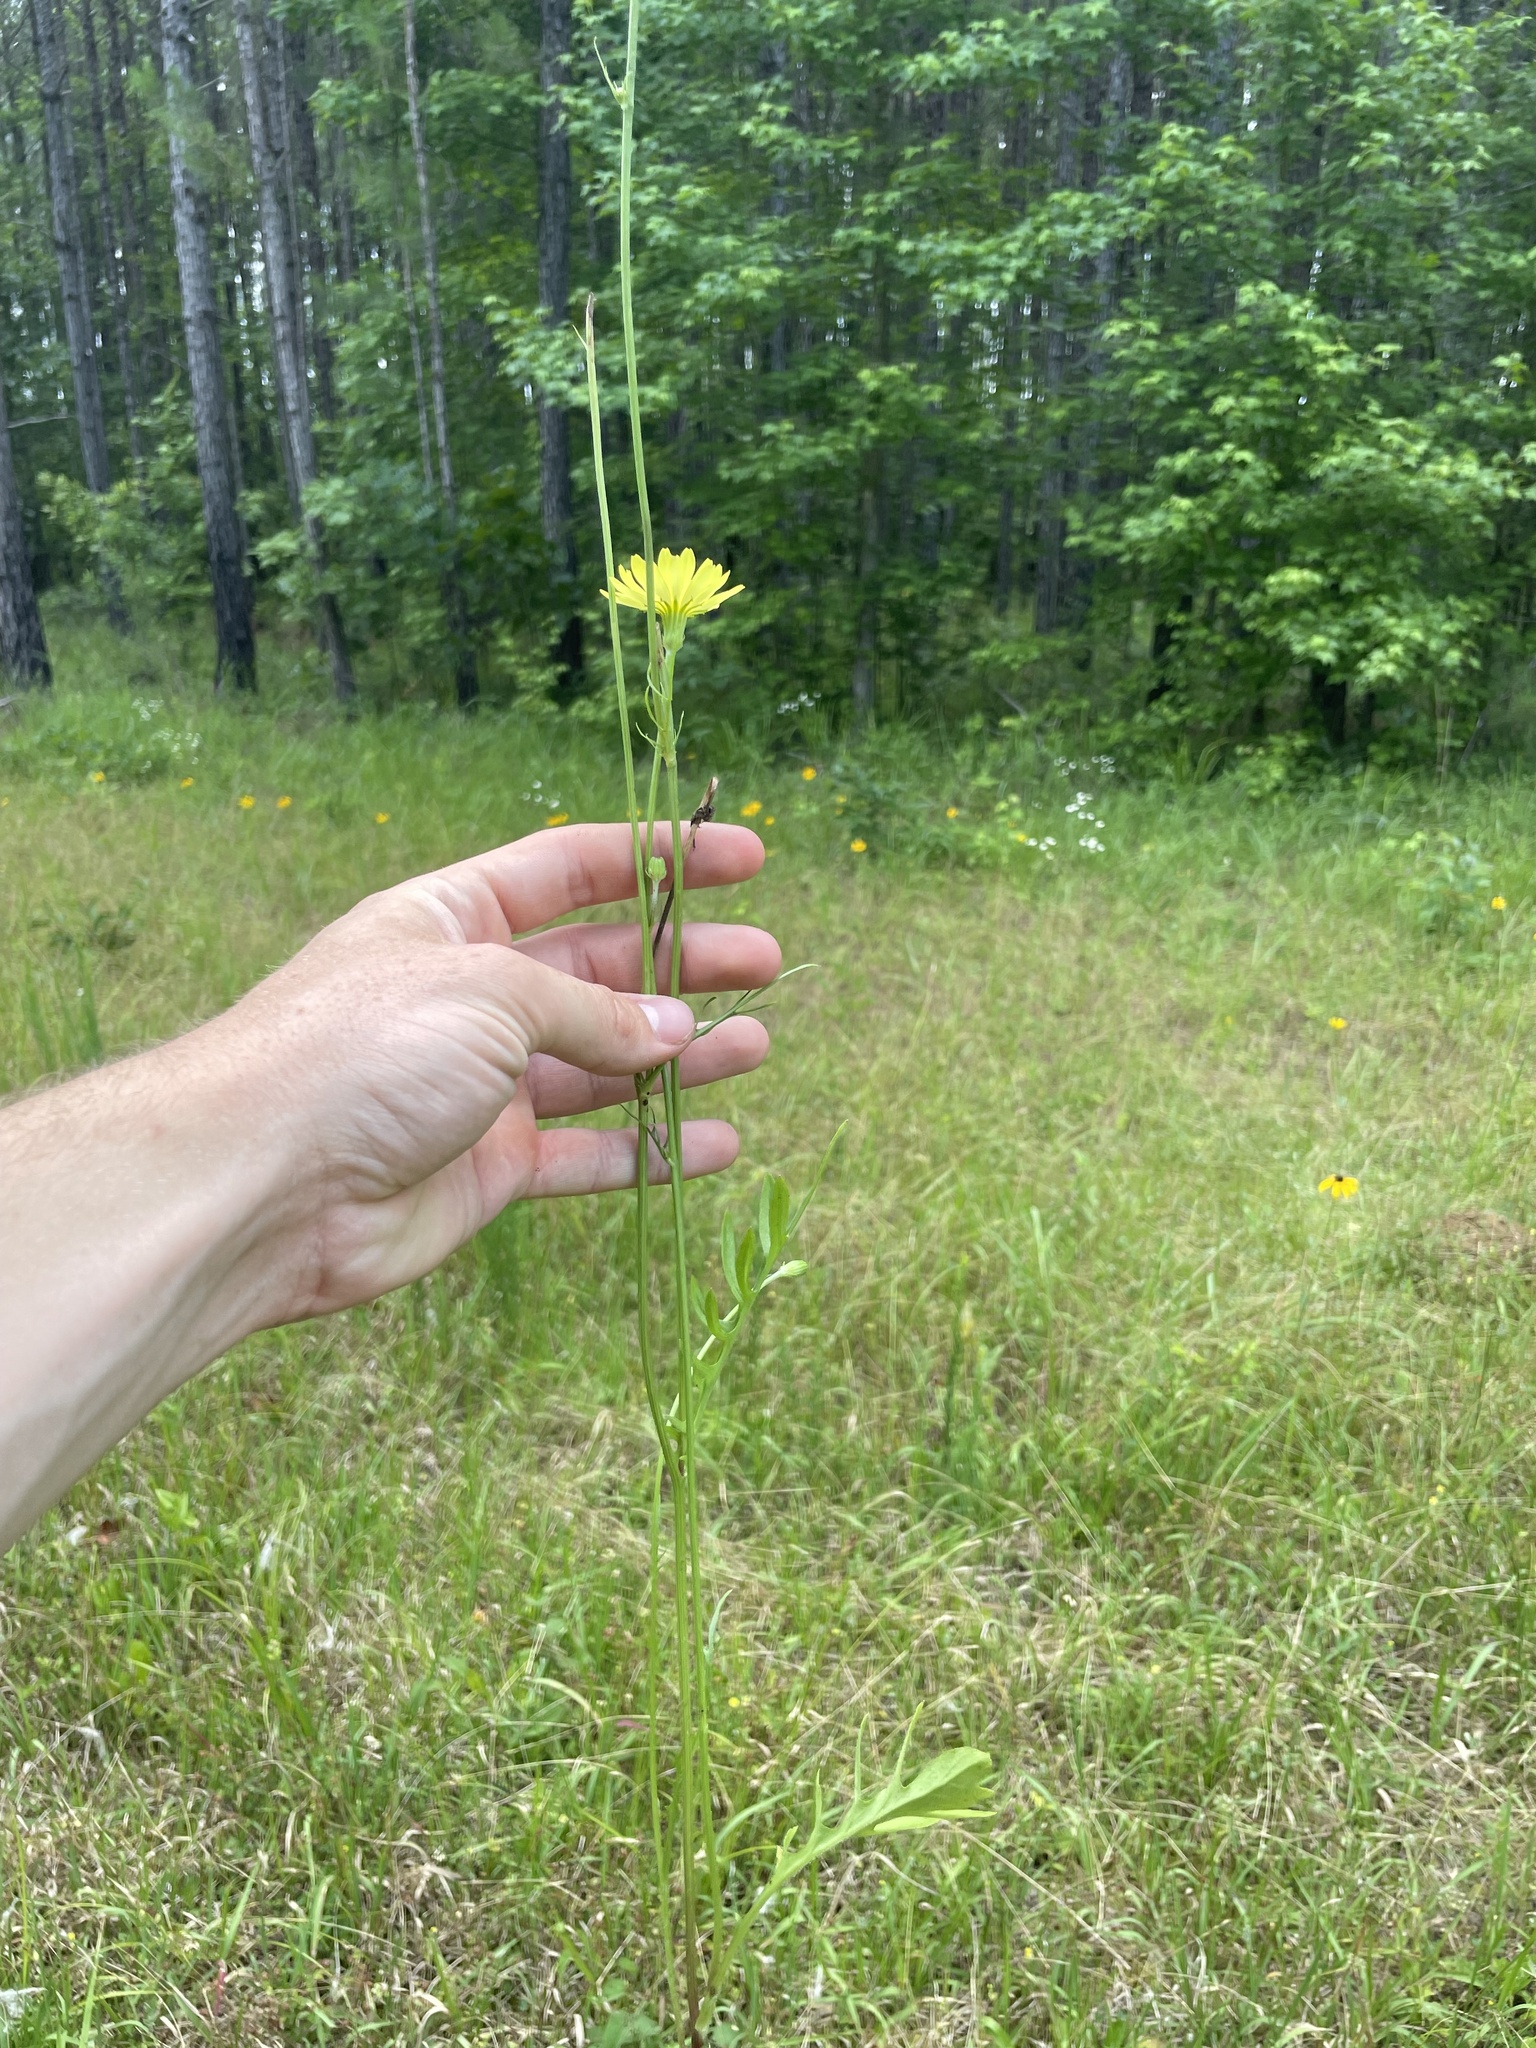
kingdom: Plantae
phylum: Tracheophyta
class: Magnoliopsida
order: Asterales
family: Asteraceae
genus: Pyrrhopappus
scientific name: Pyrrhopappus pauciflorus
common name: Texas false dandelion
